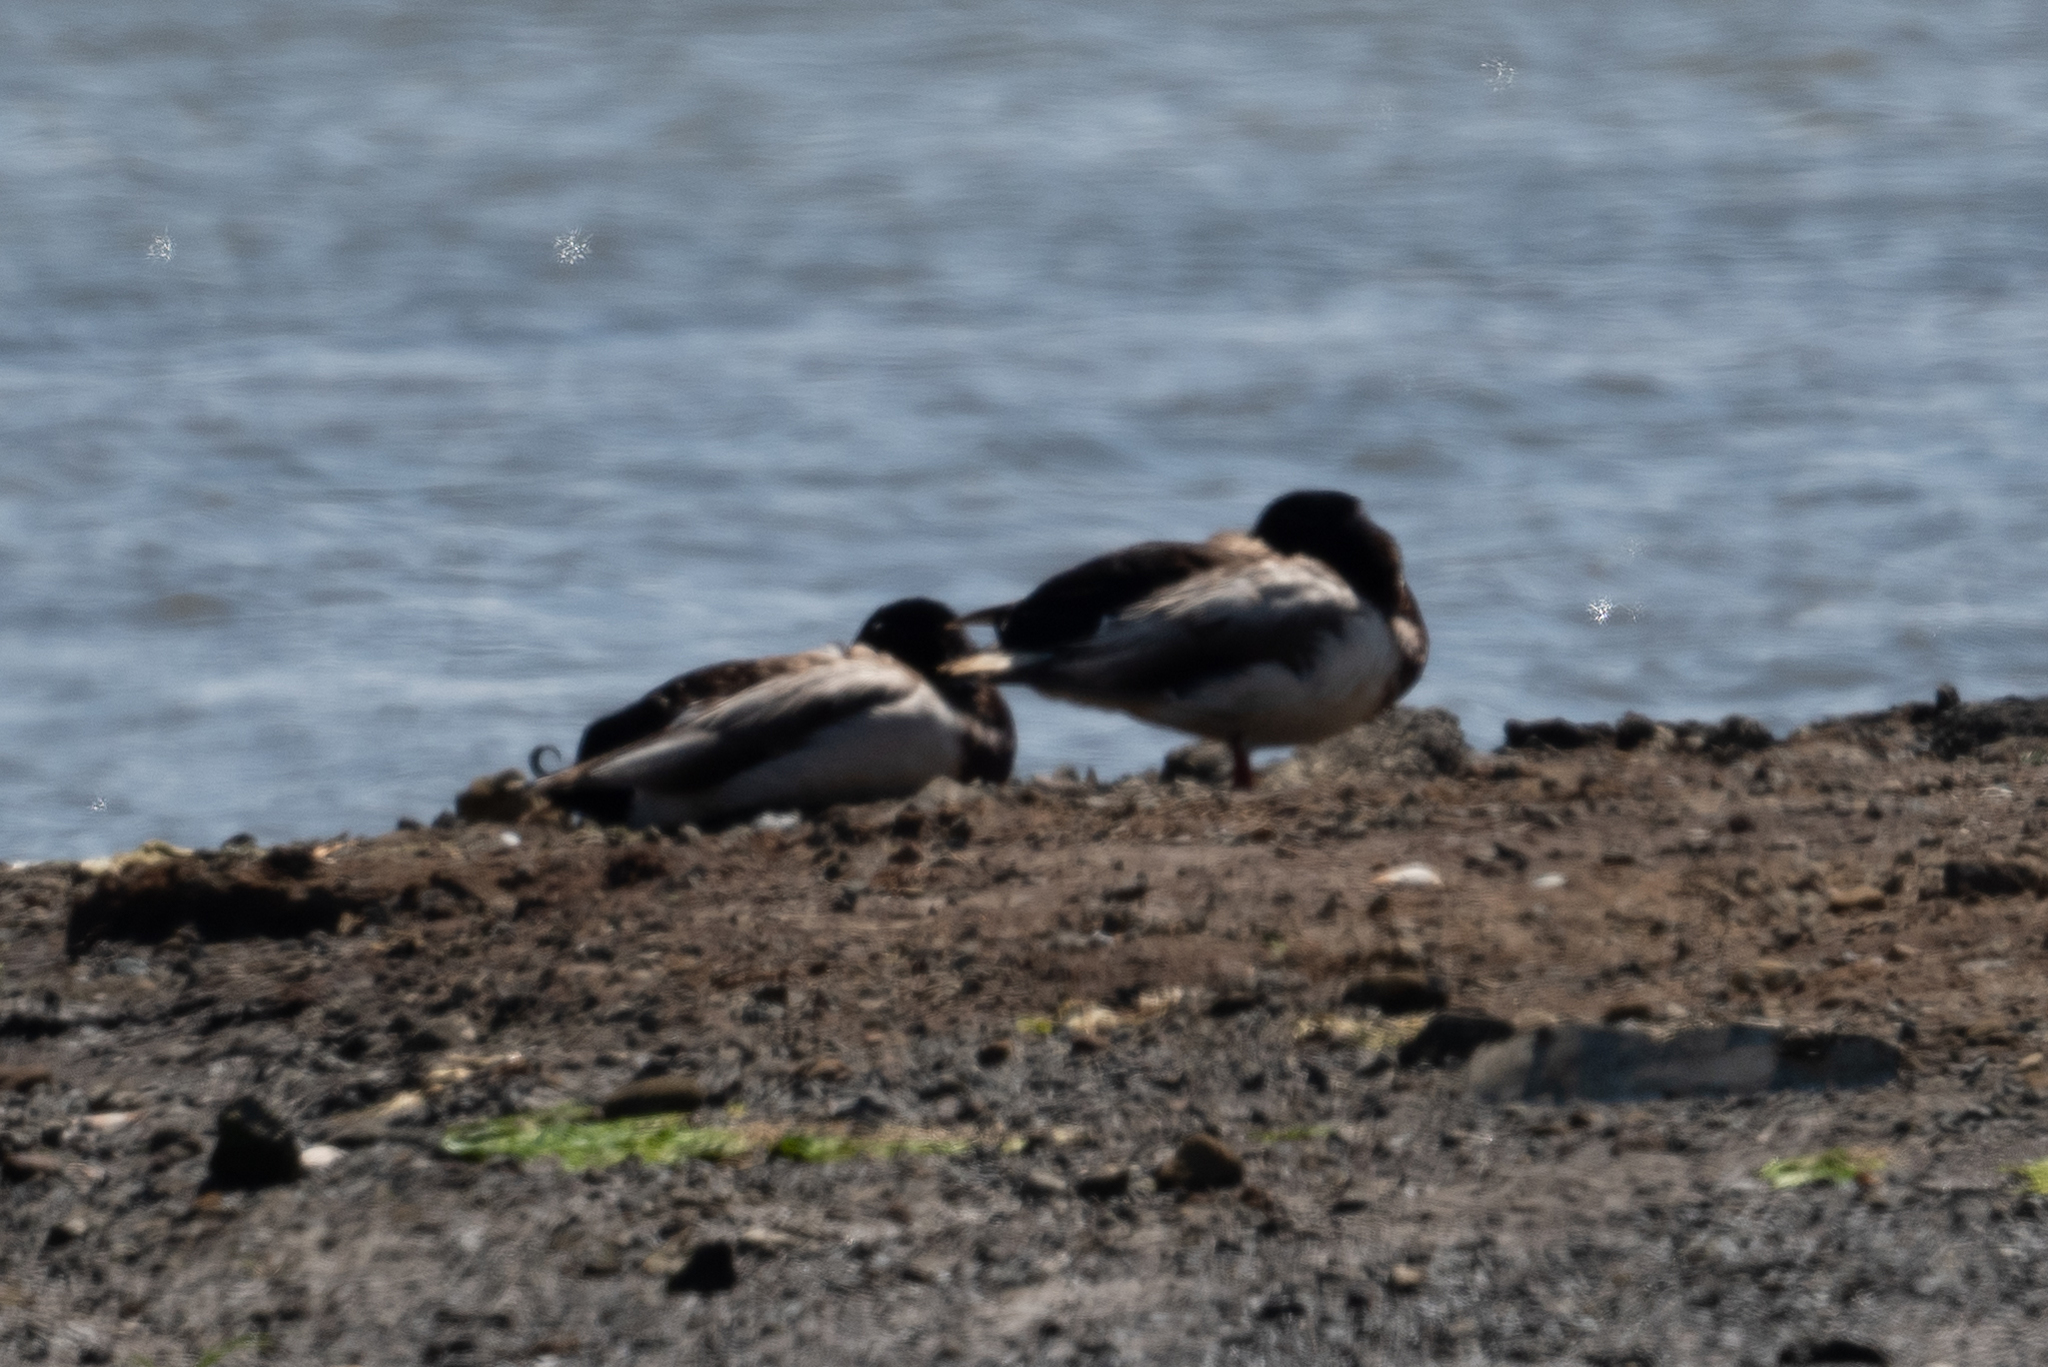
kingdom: Animalia
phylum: Chordata
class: Aves
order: Anseriformes
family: Anatidae
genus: Anas
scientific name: Anas platyrhynchos
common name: Mallard
